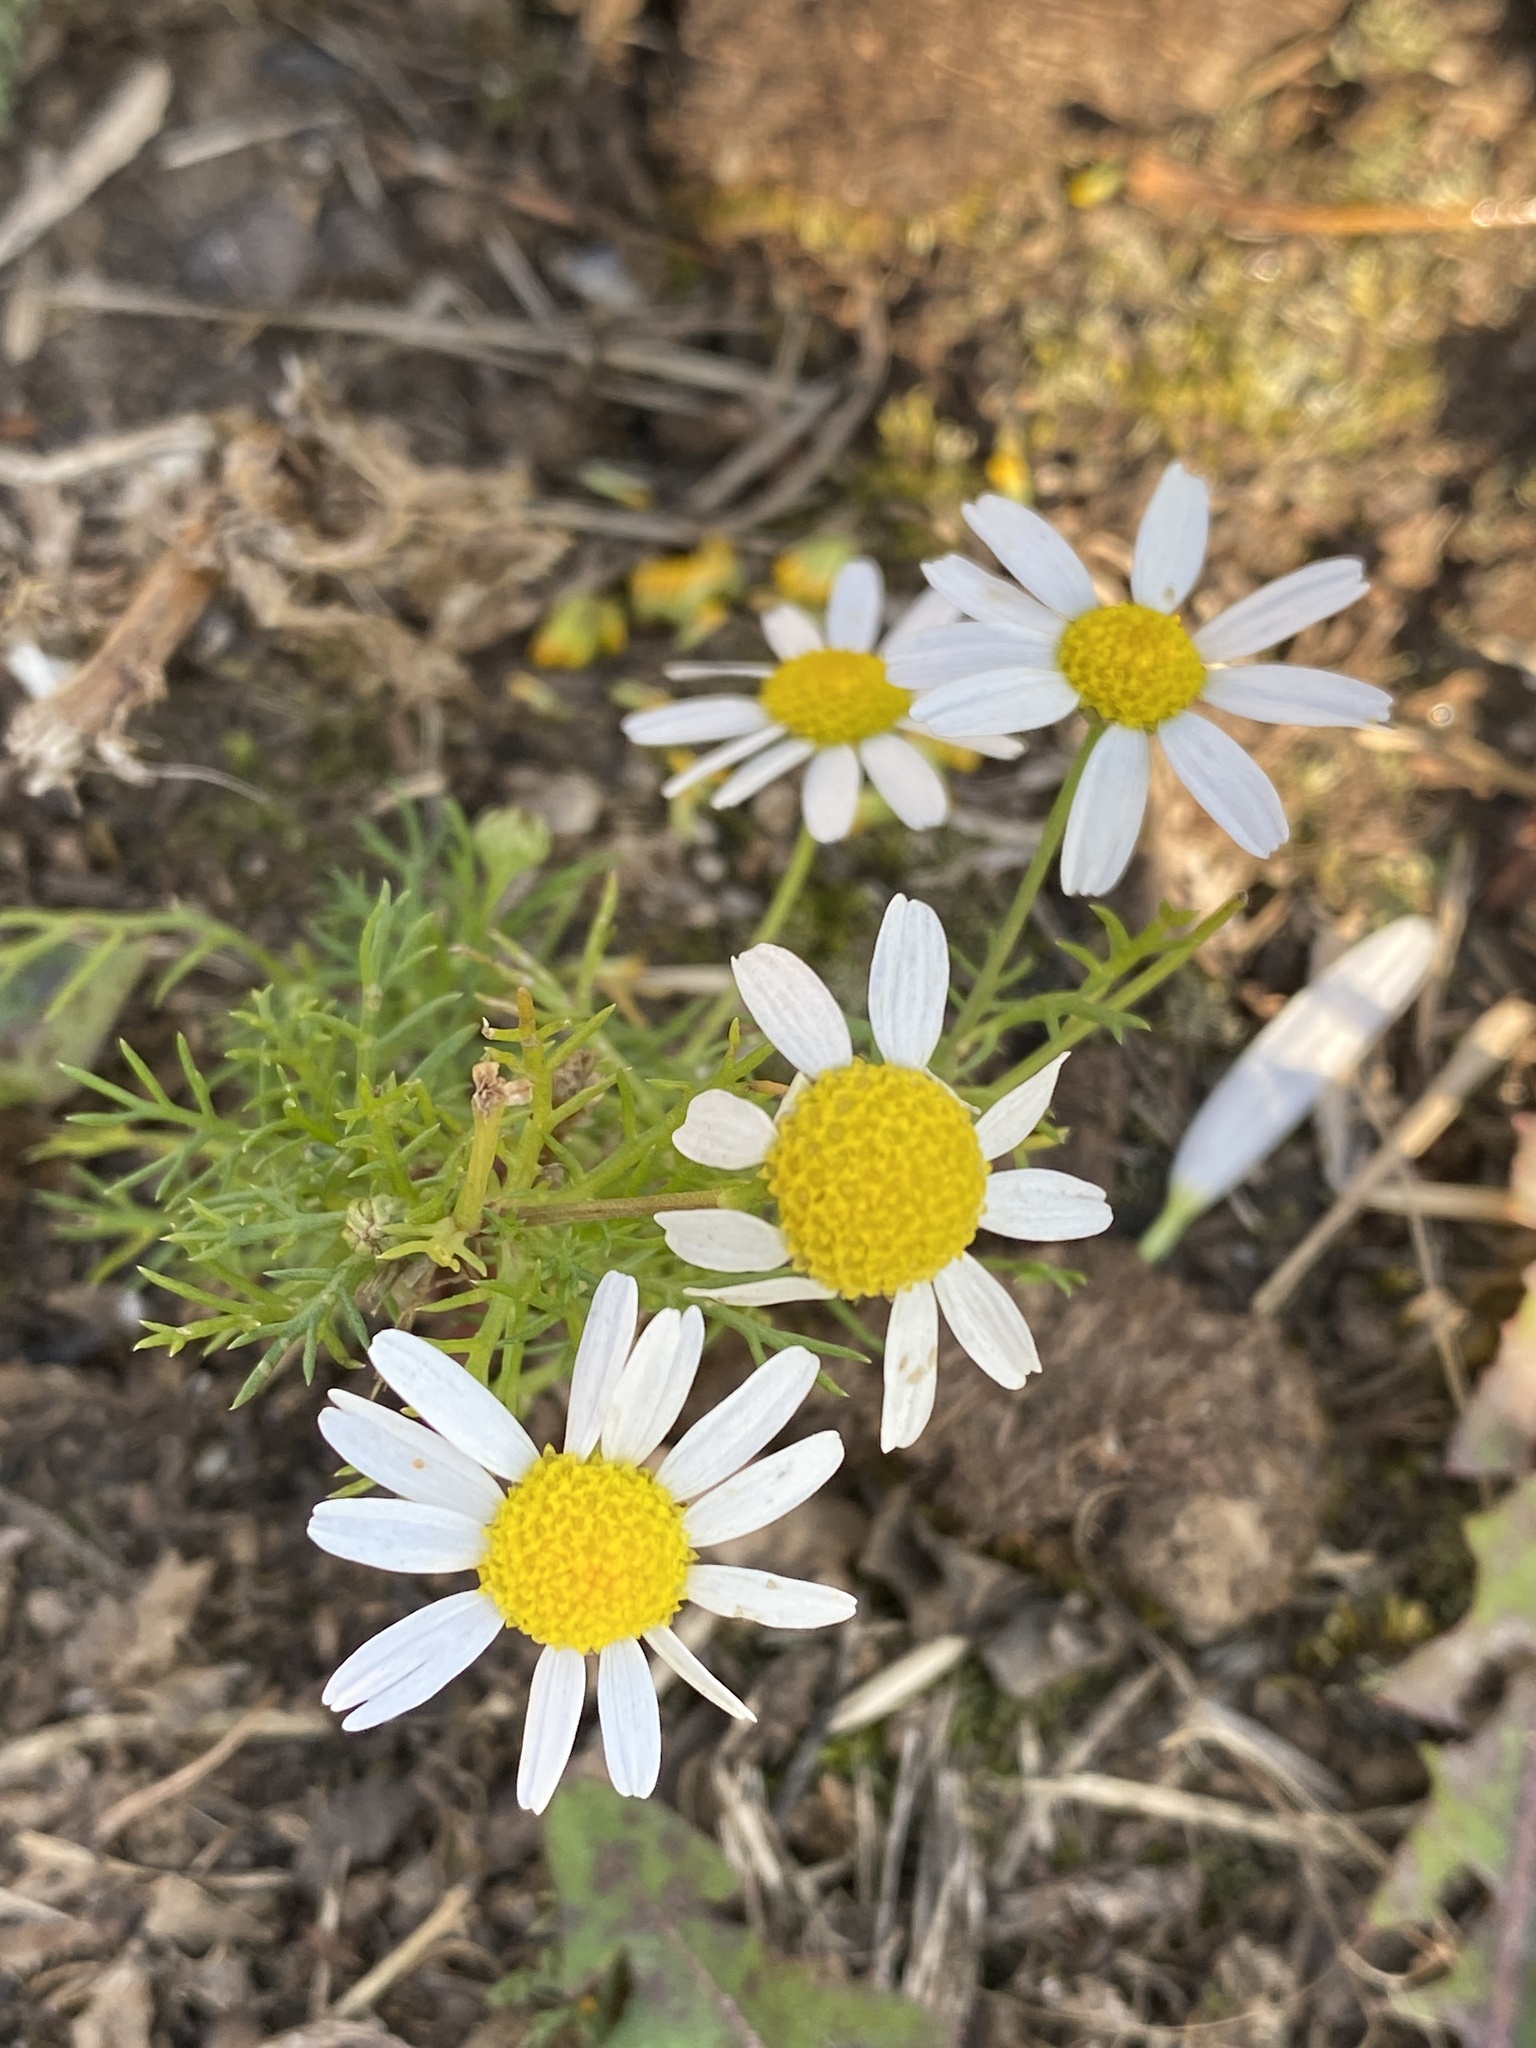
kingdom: Plantae
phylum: Tracheophyta
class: Magnoliopsida
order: Asterales
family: Asteraceae
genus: Tripleurospermum
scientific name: Tripleurospermum inodorum
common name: Scentless mayweed
